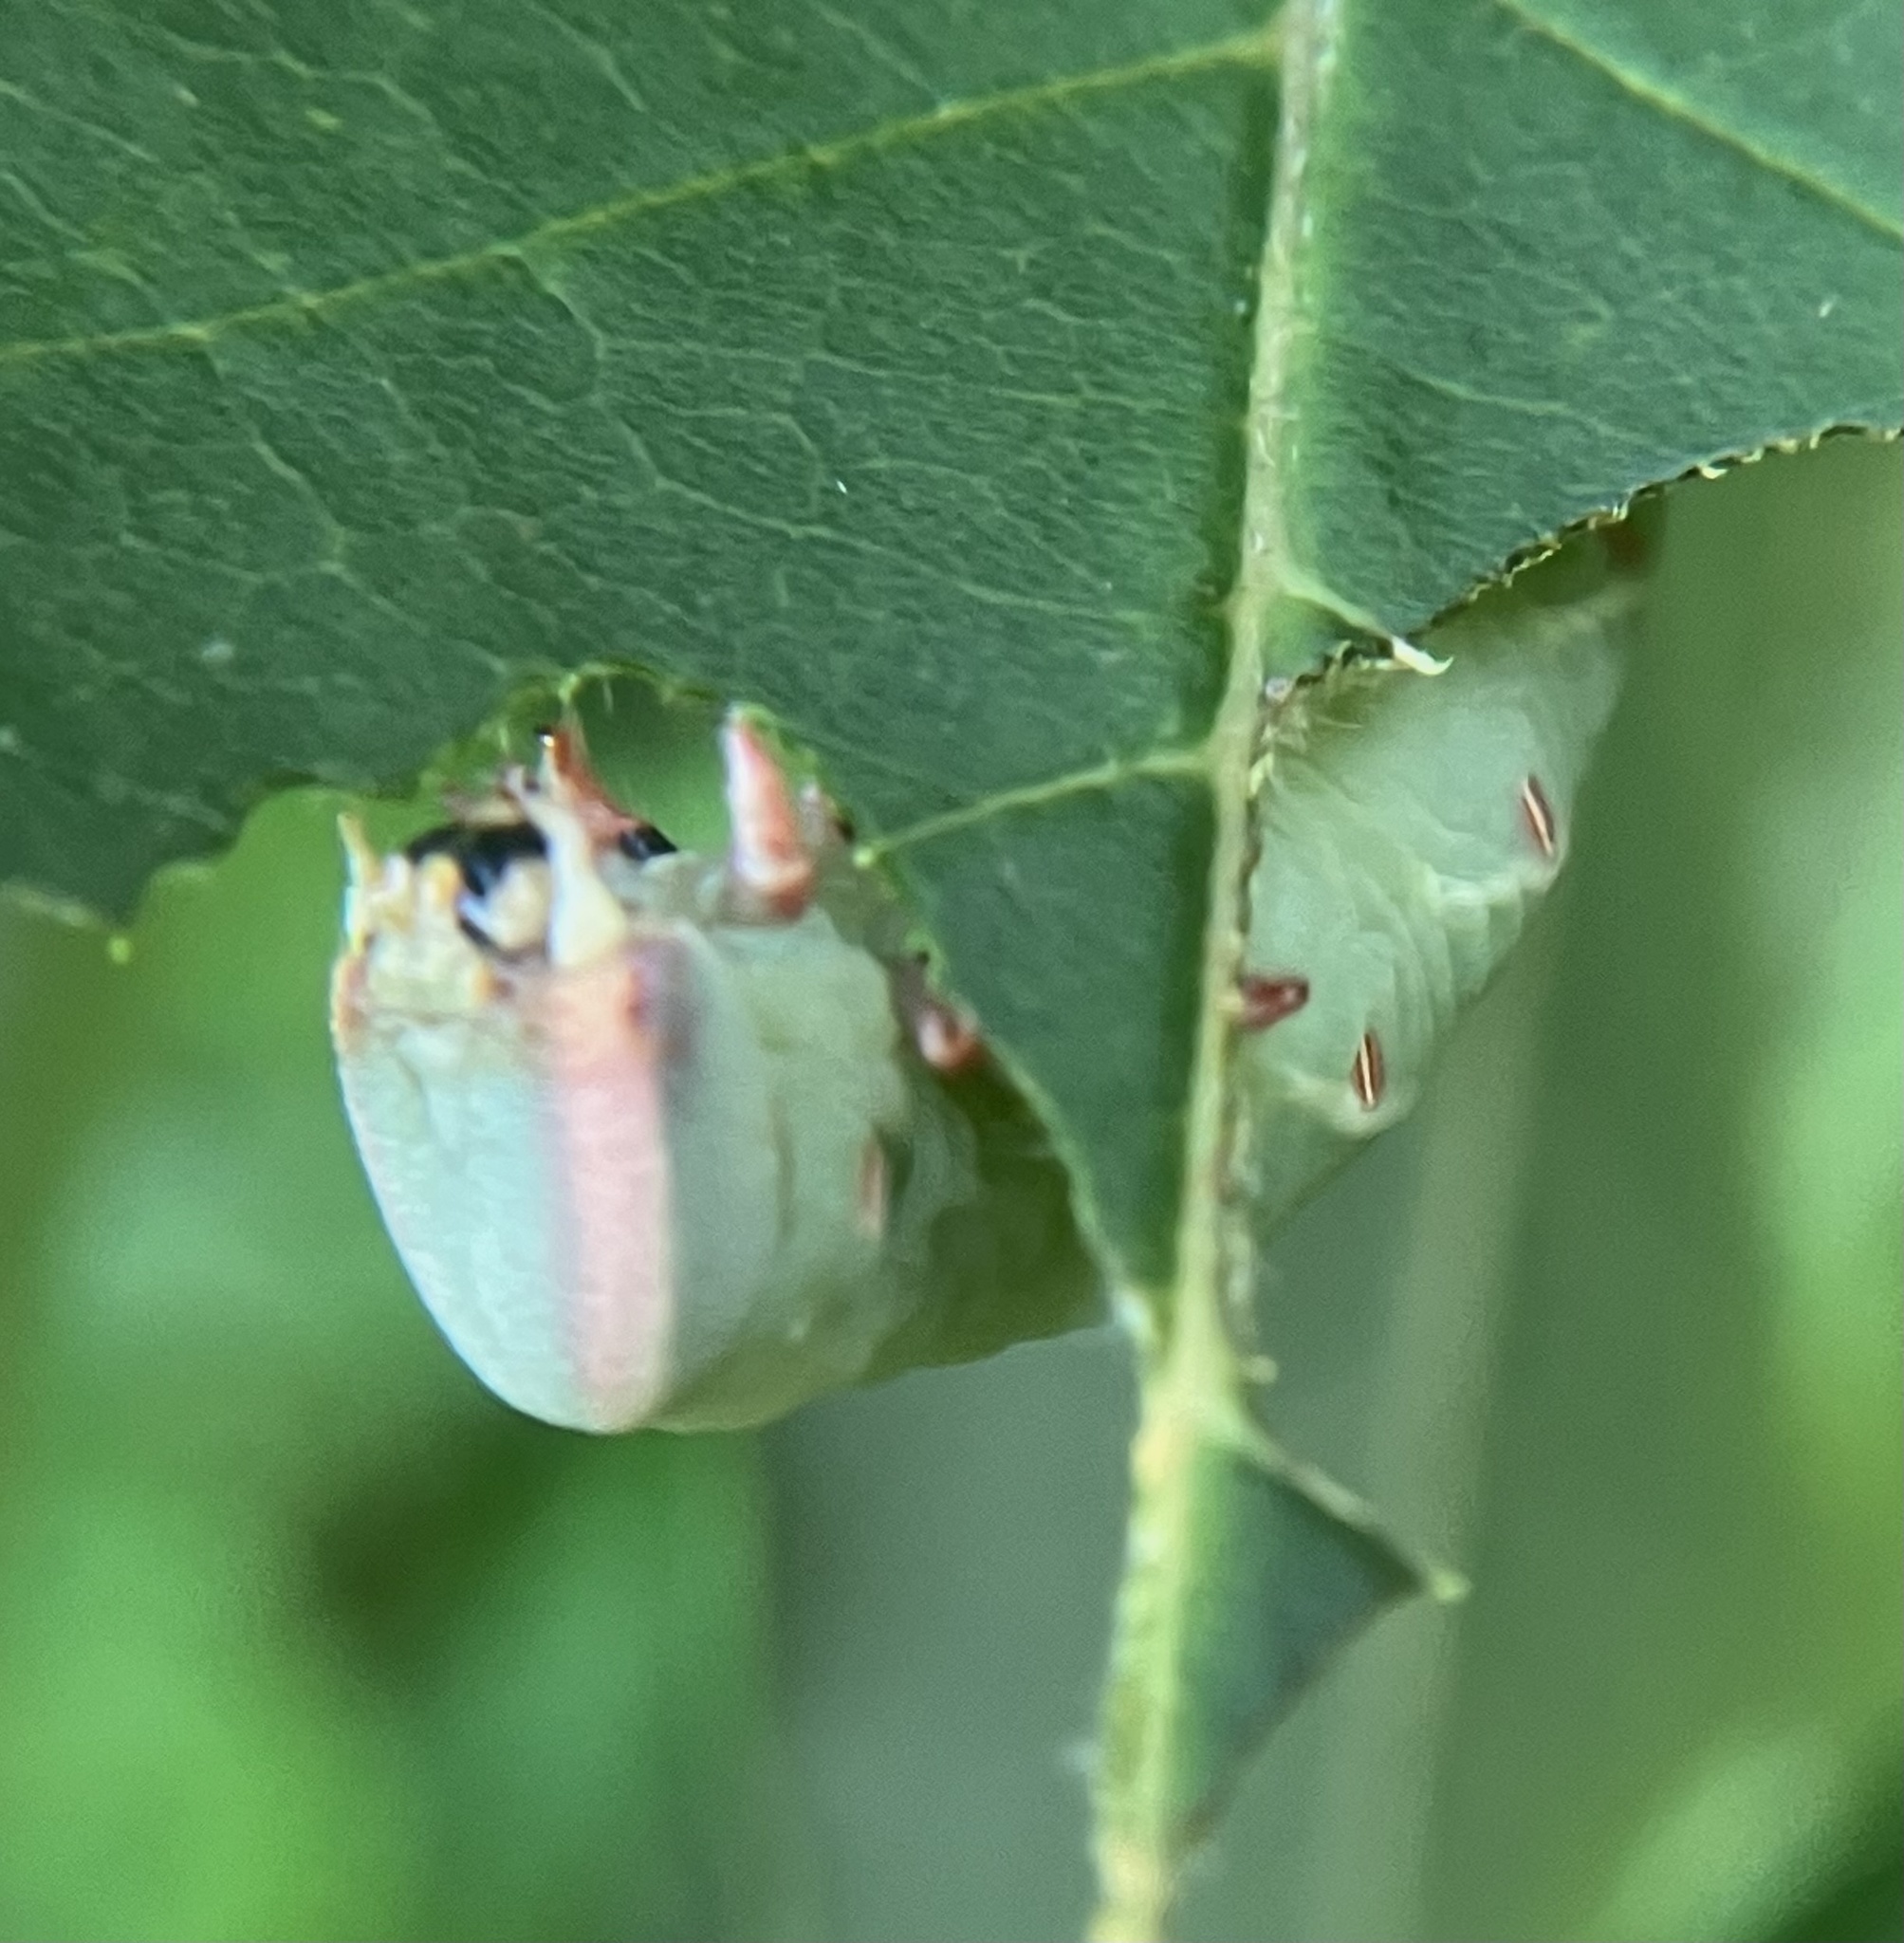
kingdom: Animalia
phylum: Arthropoda
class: Insecta
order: Lepidoptera
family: Sphingidae
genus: Ceratomia
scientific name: Ceratomia undulosa
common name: Waved sphinx
